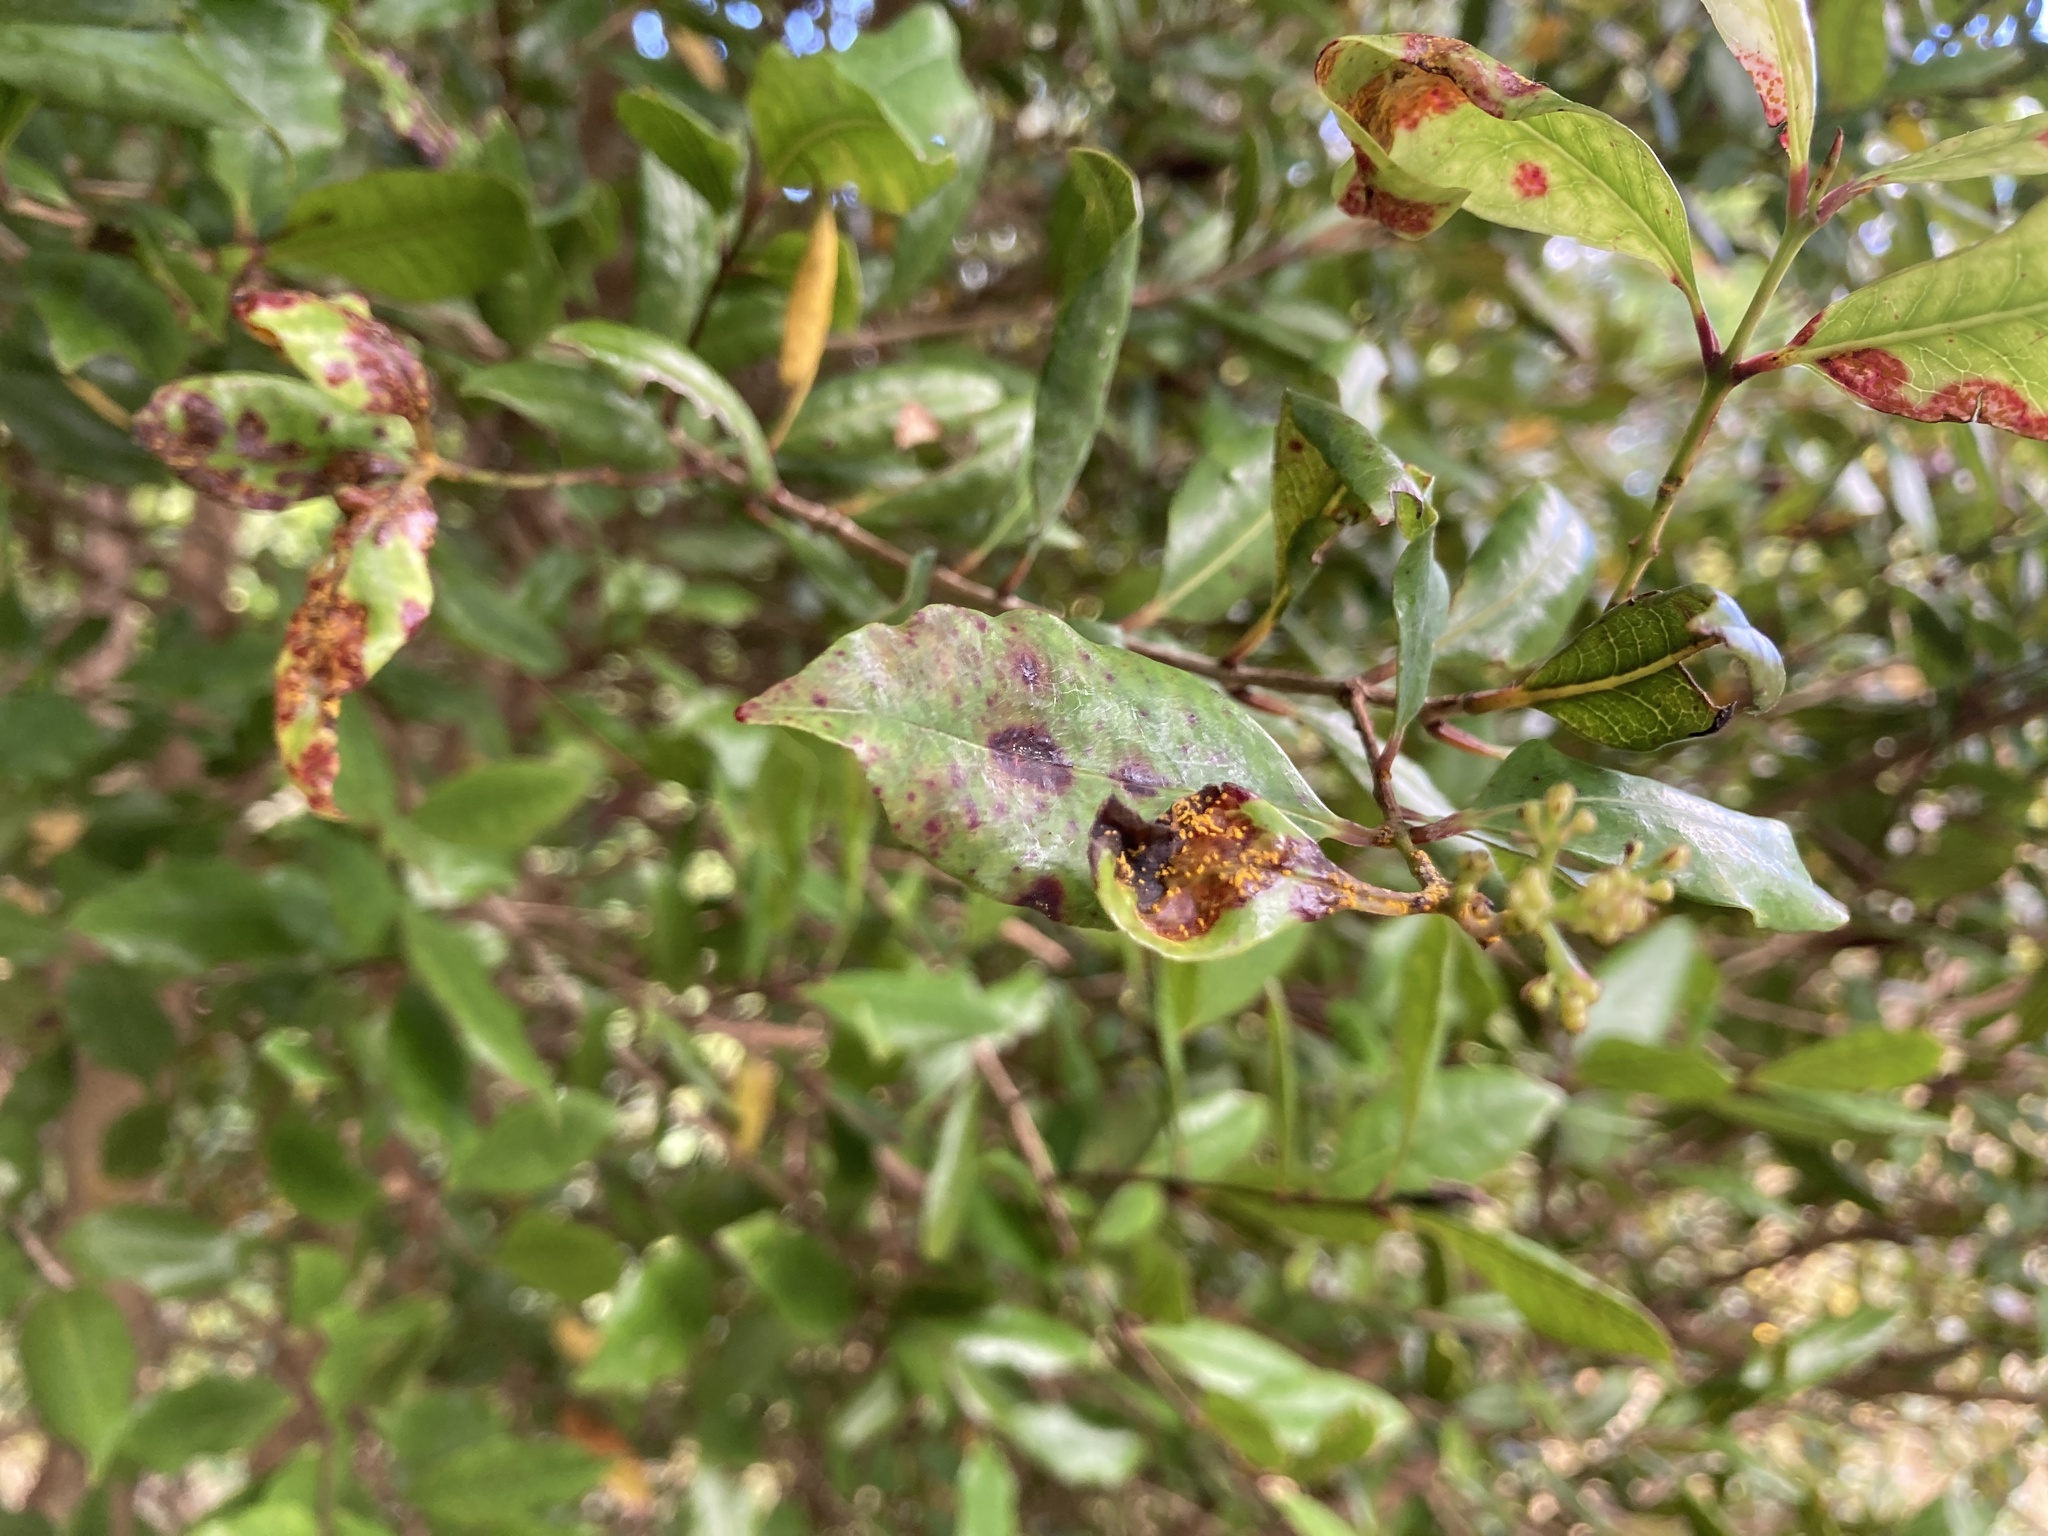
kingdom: Fungi
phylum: Basidiomycota
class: Pucciniomycetes
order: Pucciniales
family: Sphaerophragmiaceae
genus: Austropuccinia
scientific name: Austropuccinia psidii
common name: Myrtle rust
